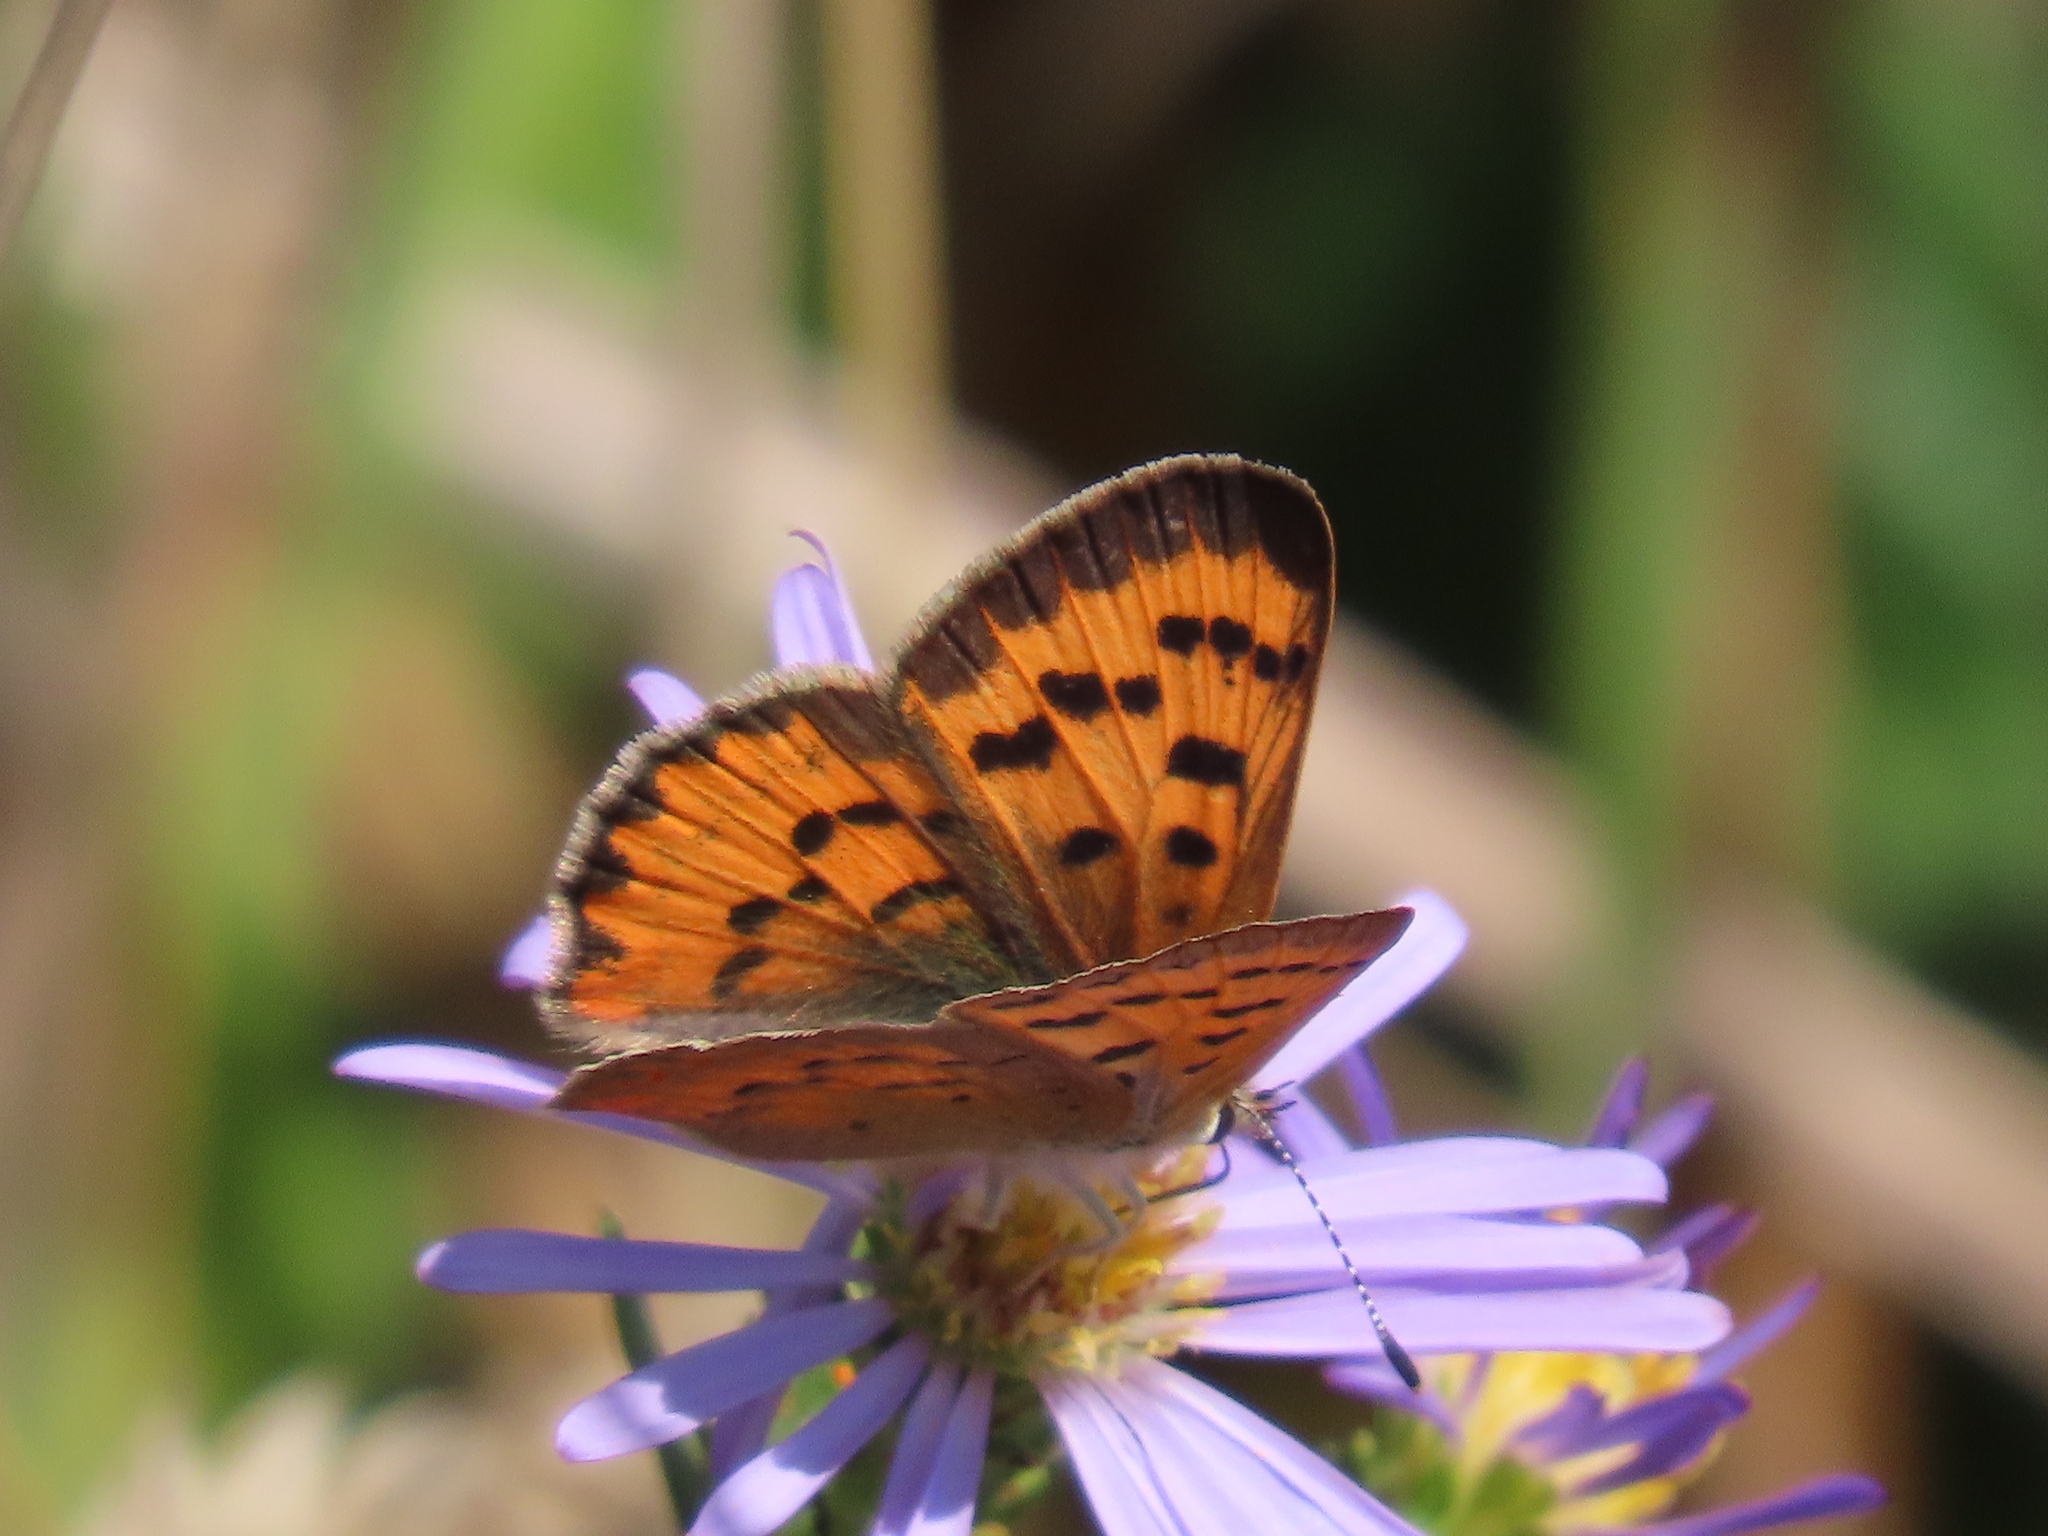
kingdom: Animalia
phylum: Arthropoda
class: Insecta
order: Lepidoptera
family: Lycaenidae
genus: Tharsalea
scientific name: Tharsalea helloides
